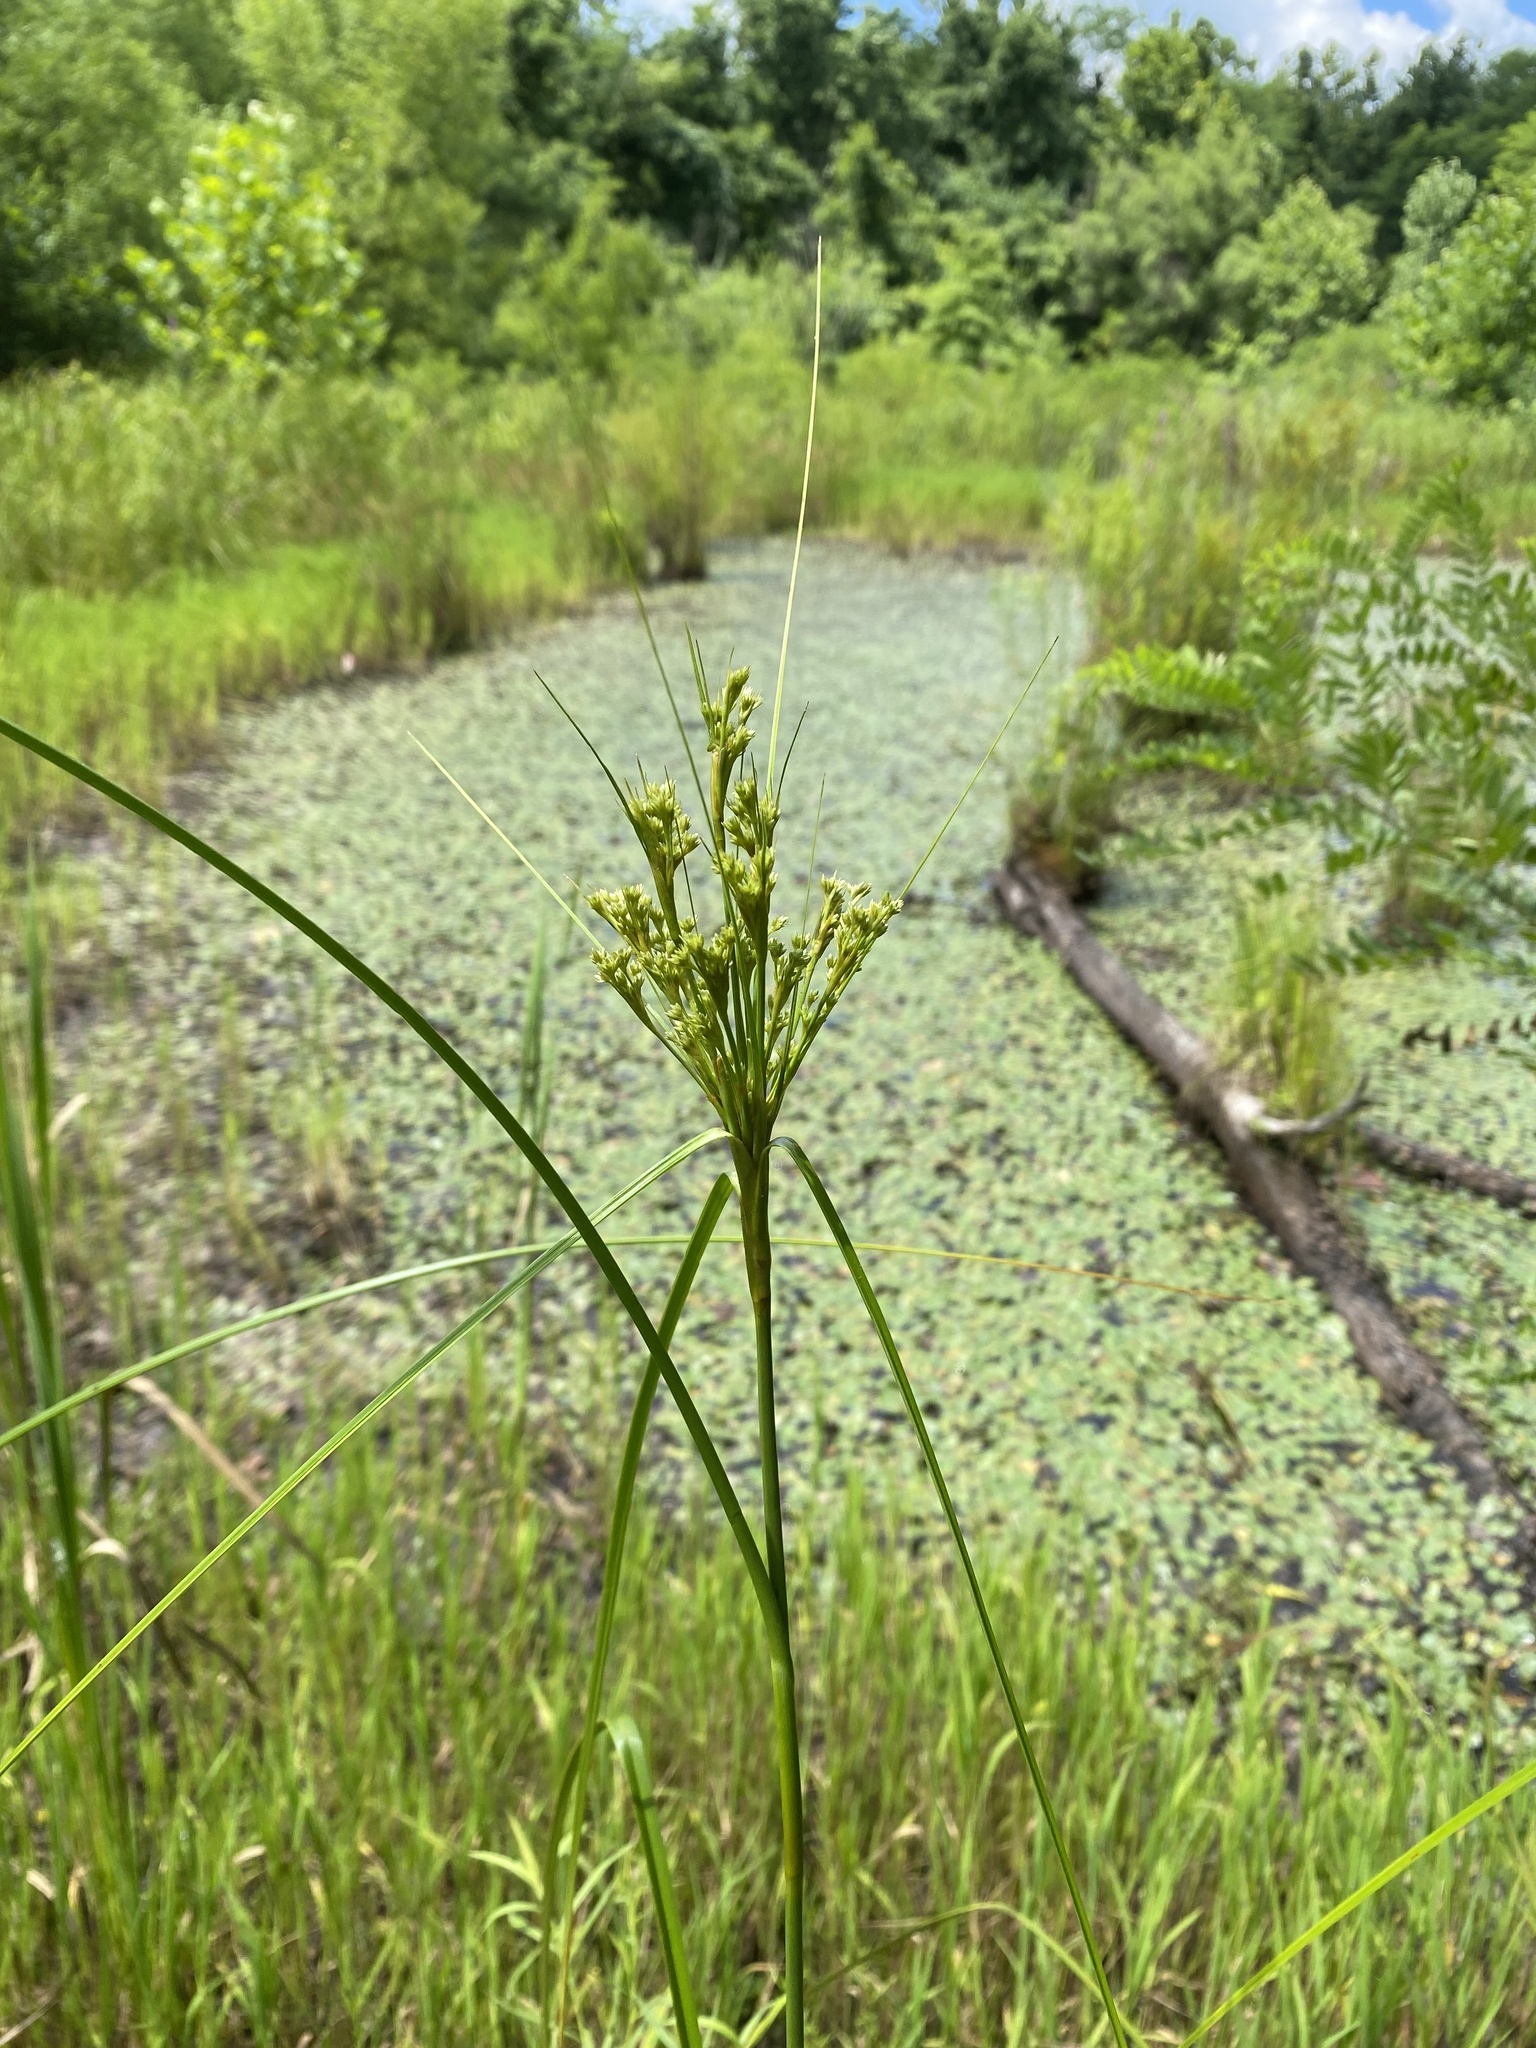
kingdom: Plantae
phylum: Tracheophyta
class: Liliopsida
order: Poales
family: Cyperaceae
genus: Scirpus
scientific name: Scirpus cyperinus
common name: Black-sheathed bulrush
